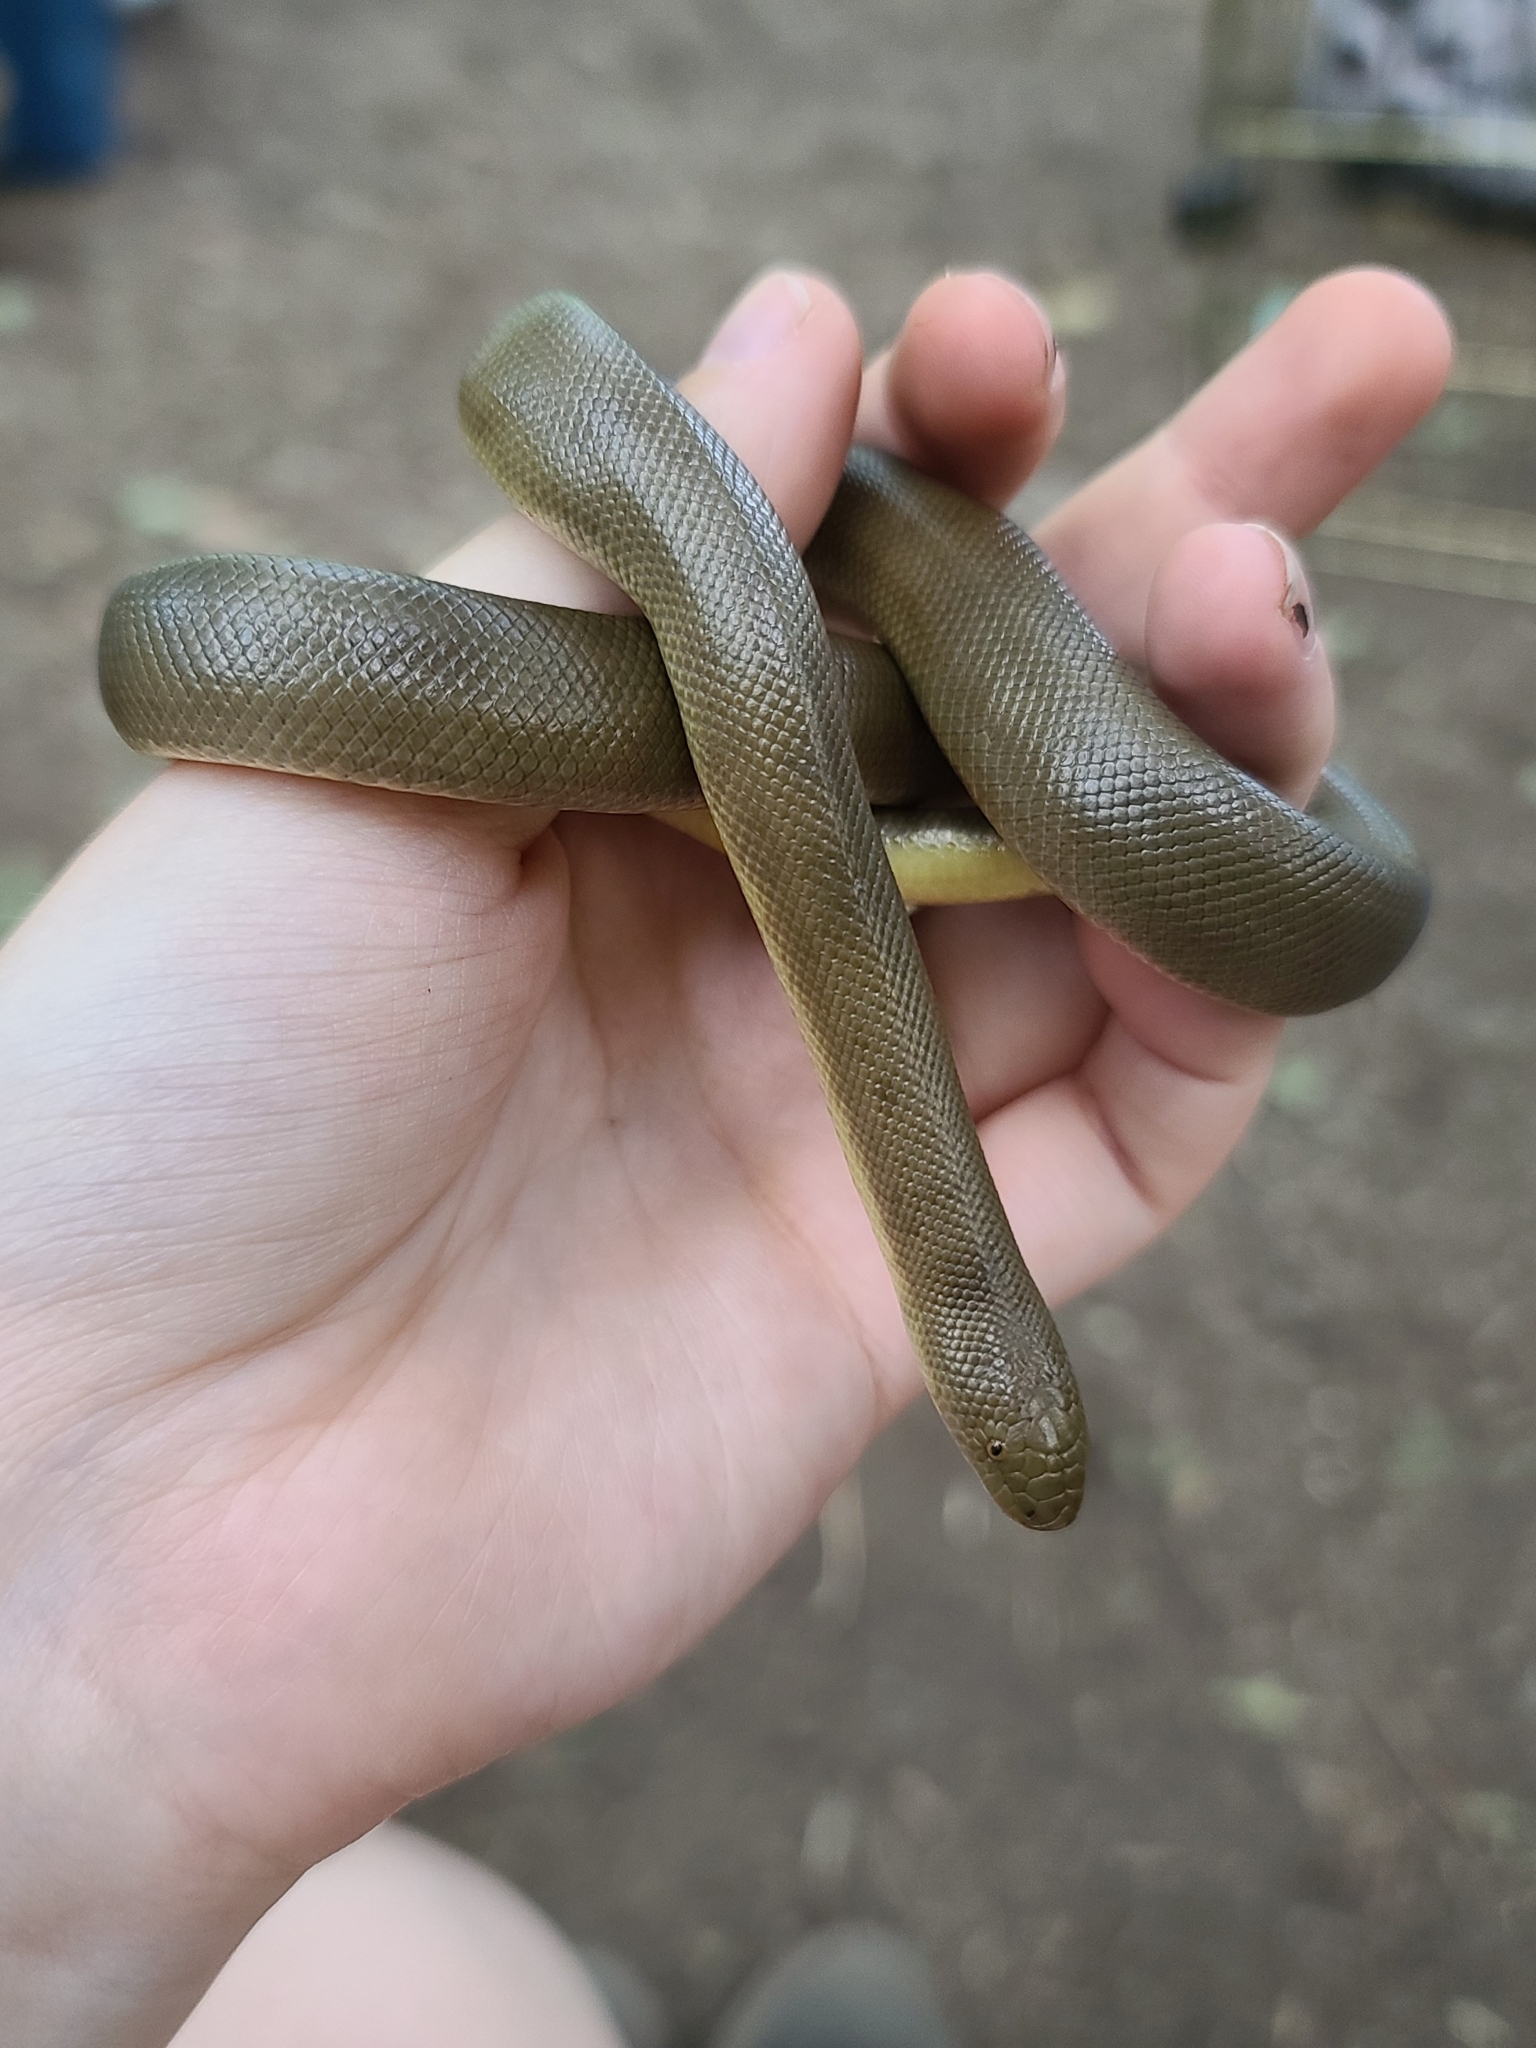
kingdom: Animalia
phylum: Chordata
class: Squamata
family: Boidae
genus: Charina
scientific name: Charina bottae
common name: Northern rubber boa
